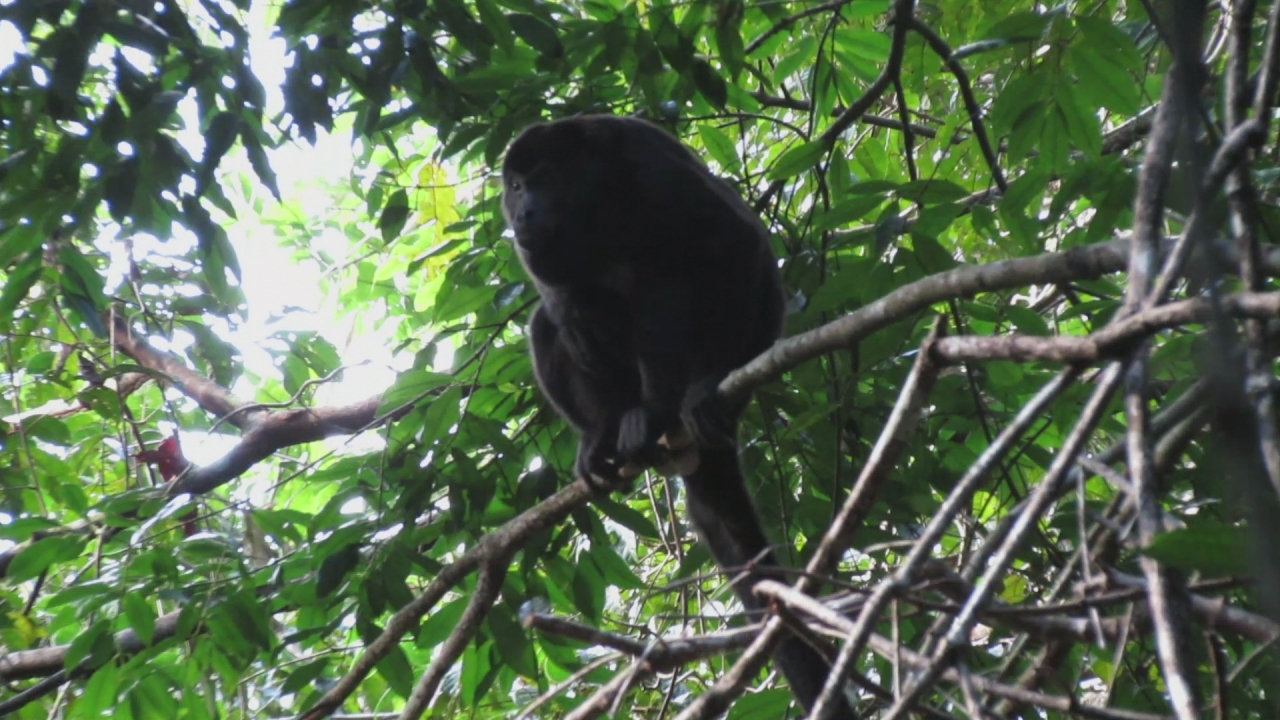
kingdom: Animalia
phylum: Chordata
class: Mammalia
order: Primates
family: Atelidae
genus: Alouatta
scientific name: Alouatta palliata
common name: Mantled howler
